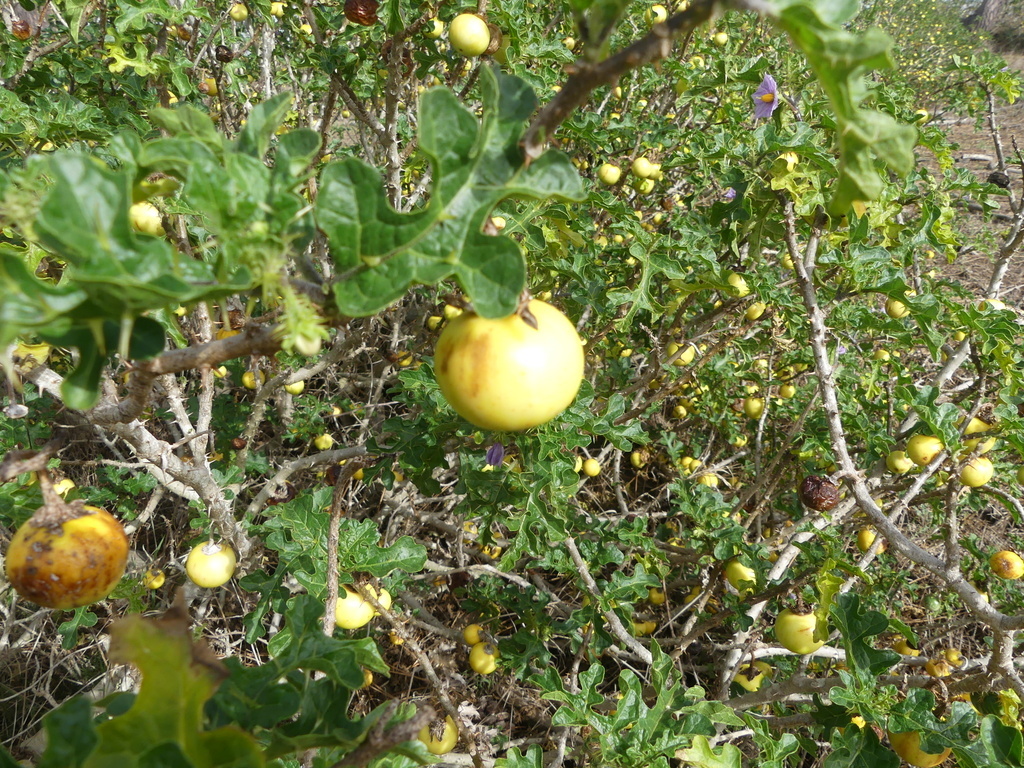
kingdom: Plantae
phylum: Tracheophyta
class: Magnoliopsida
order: Solanales
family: Solanaceae
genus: Solanum
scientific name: Solanum linnaeanum
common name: Nightshade
